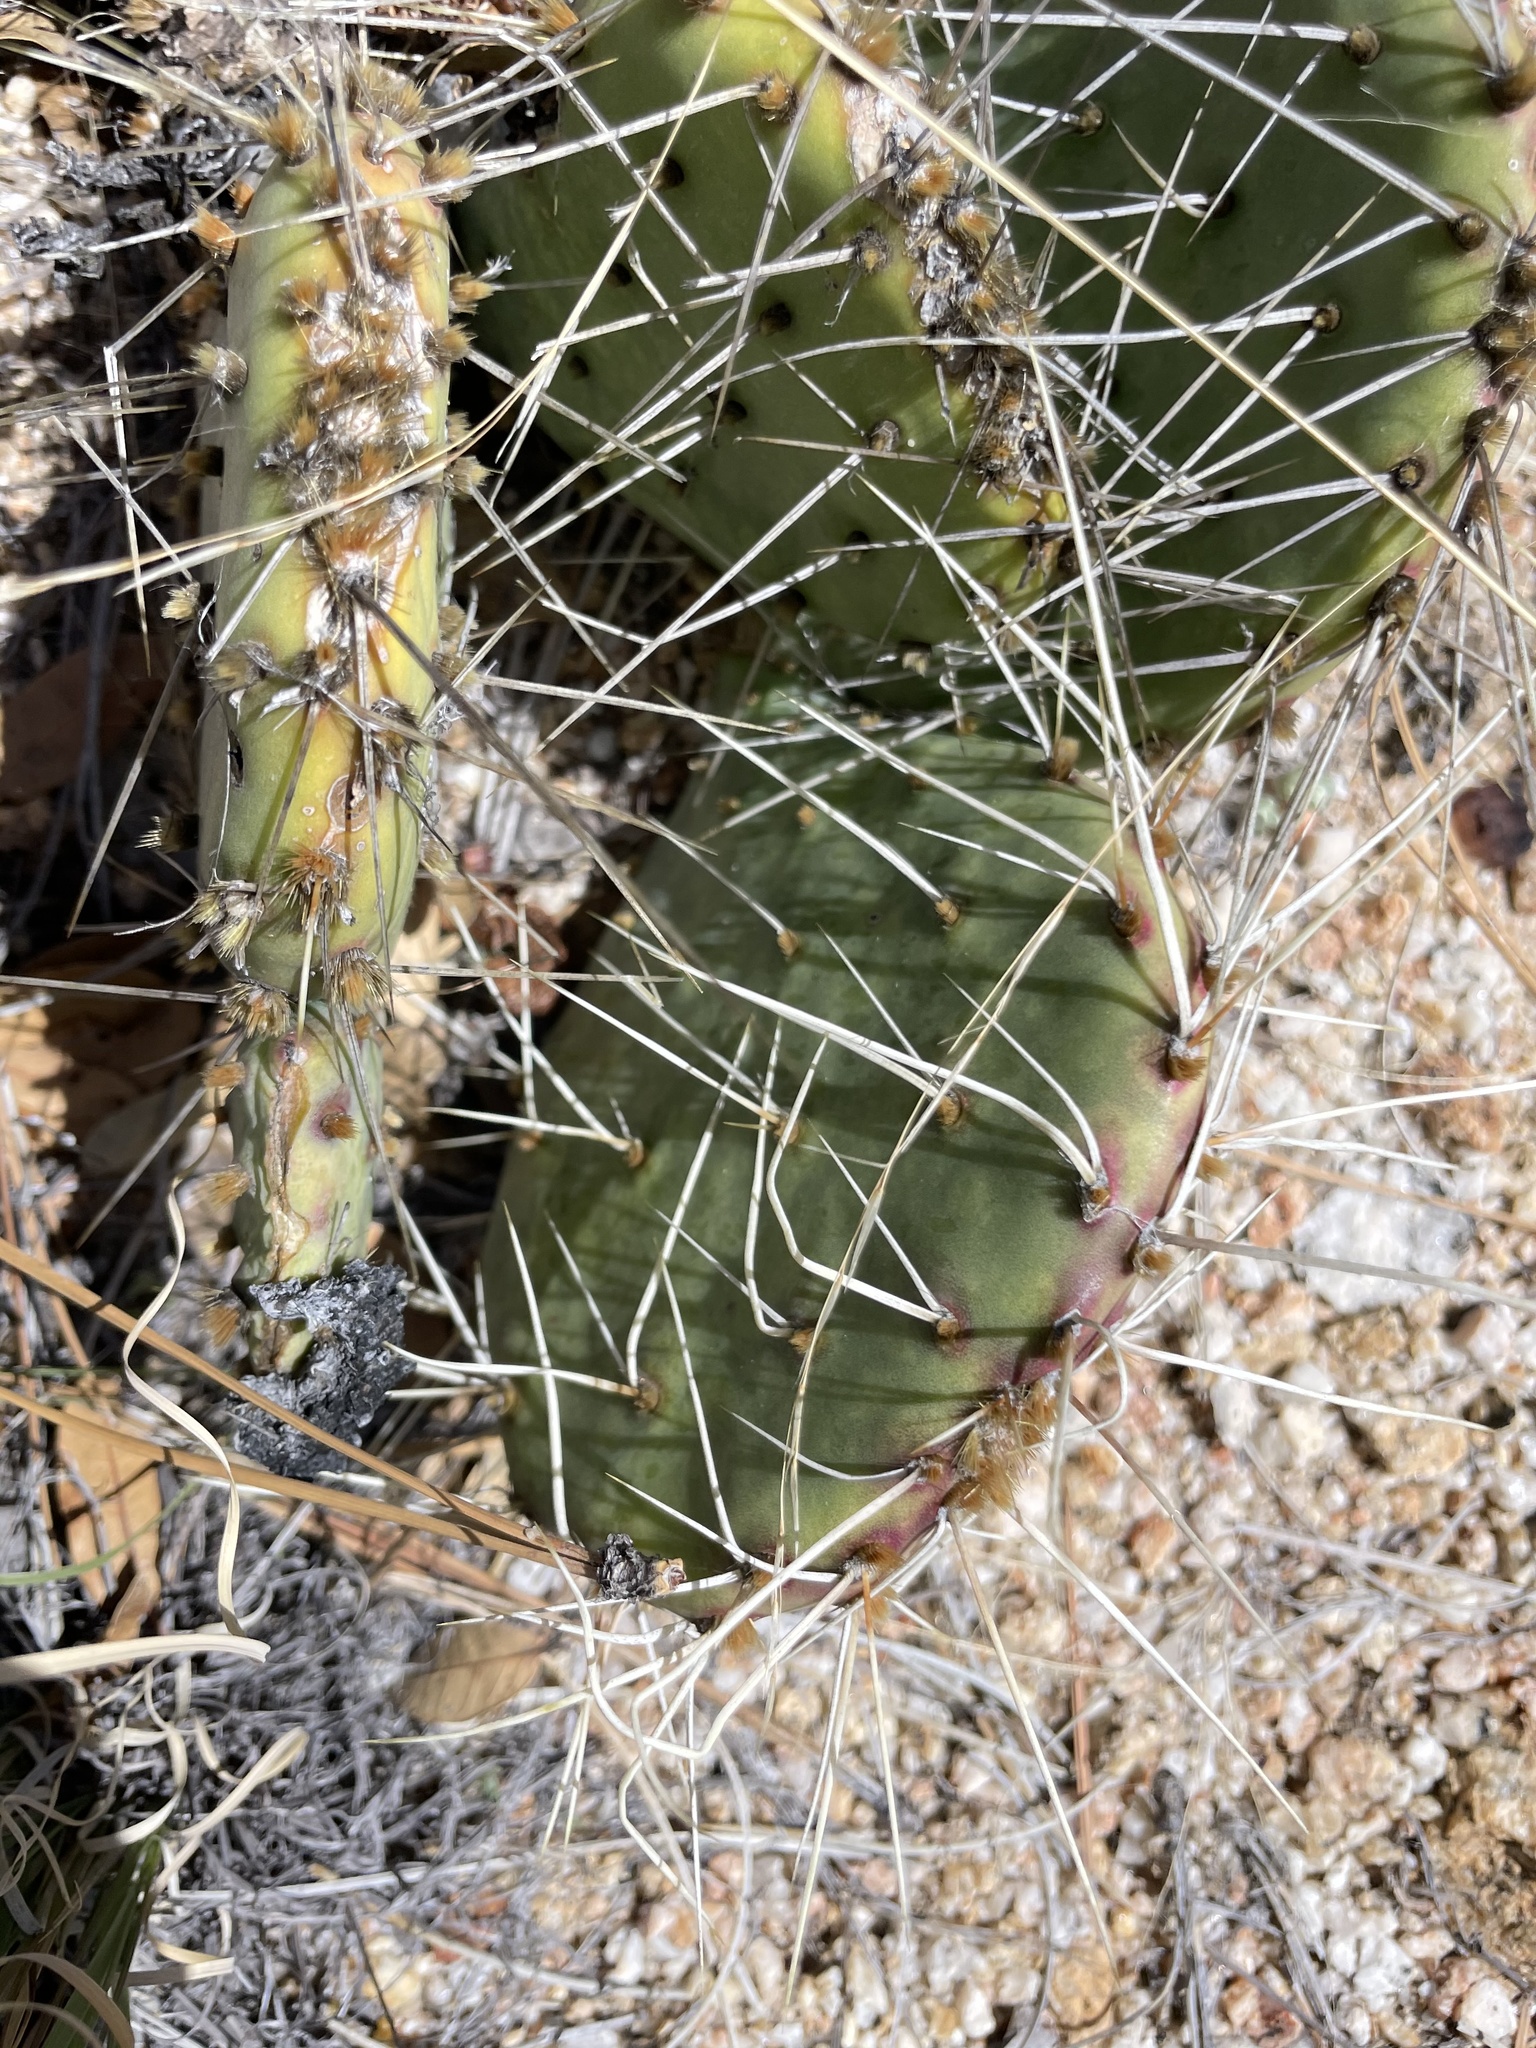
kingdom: Plantae
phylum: Tracheophyta
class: Magnoliopsida
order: Caryophyllales
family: Cactaceae
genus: Opuntia
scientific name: Opuntia phaeacantha
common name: New mexico prickly-pear
